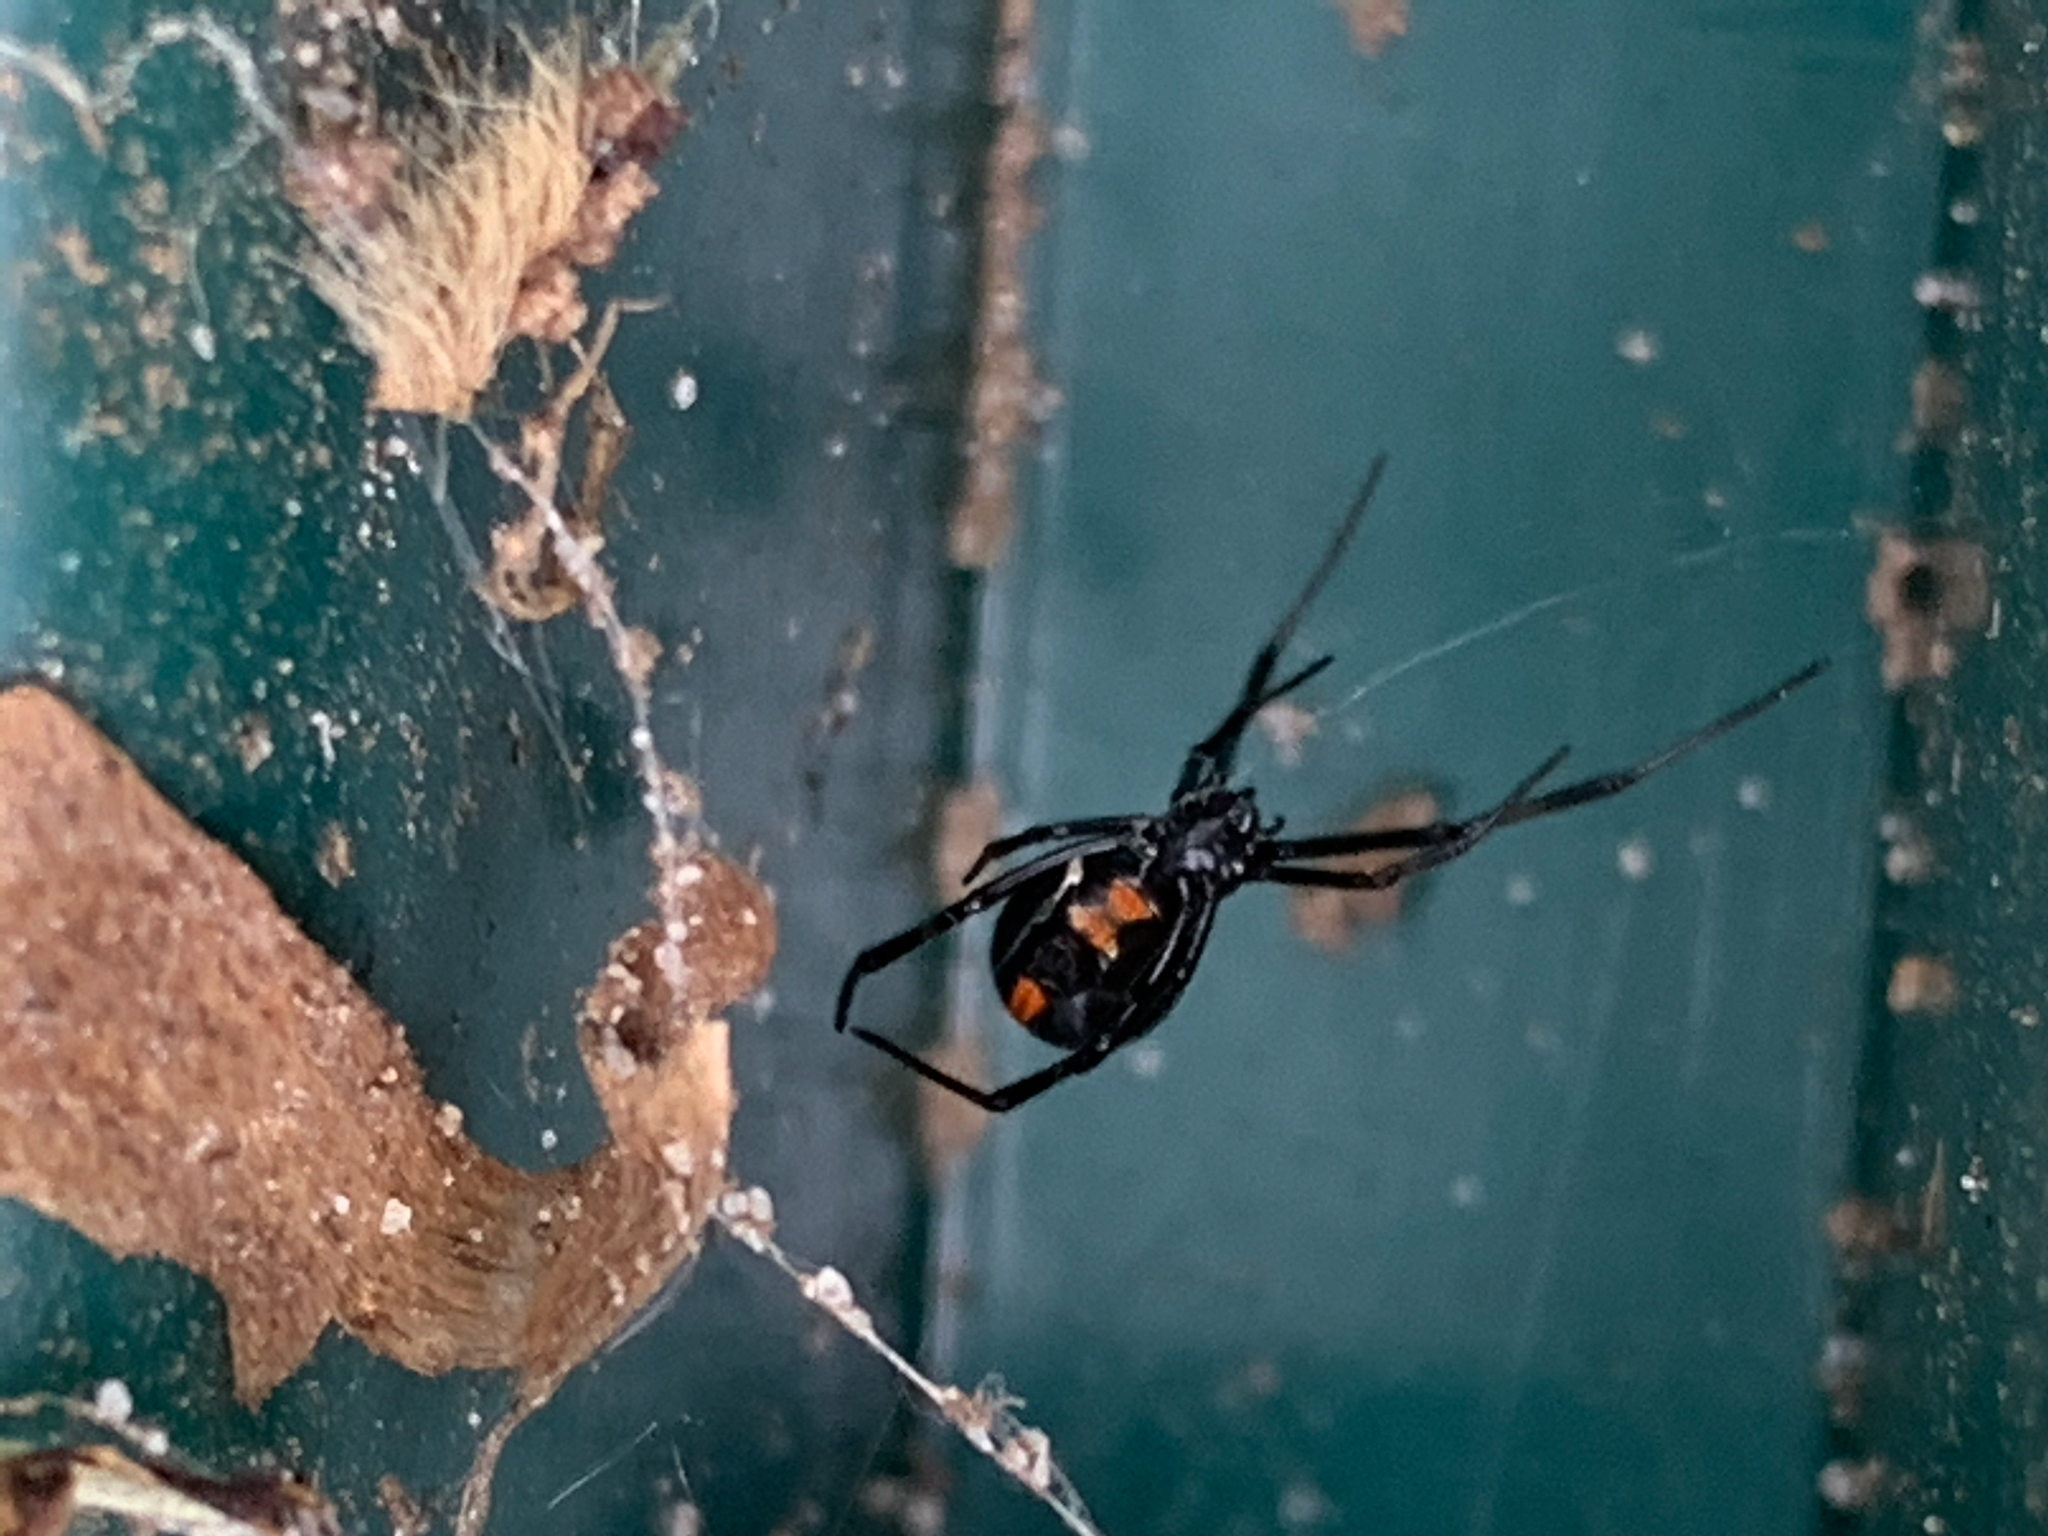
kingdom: Animalia
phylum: Arthropoda
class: Arachnida
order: Araneae
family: Theridiidae
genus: Latrodectus
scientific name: Latrodectus mactans
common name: Cobweb spiders
